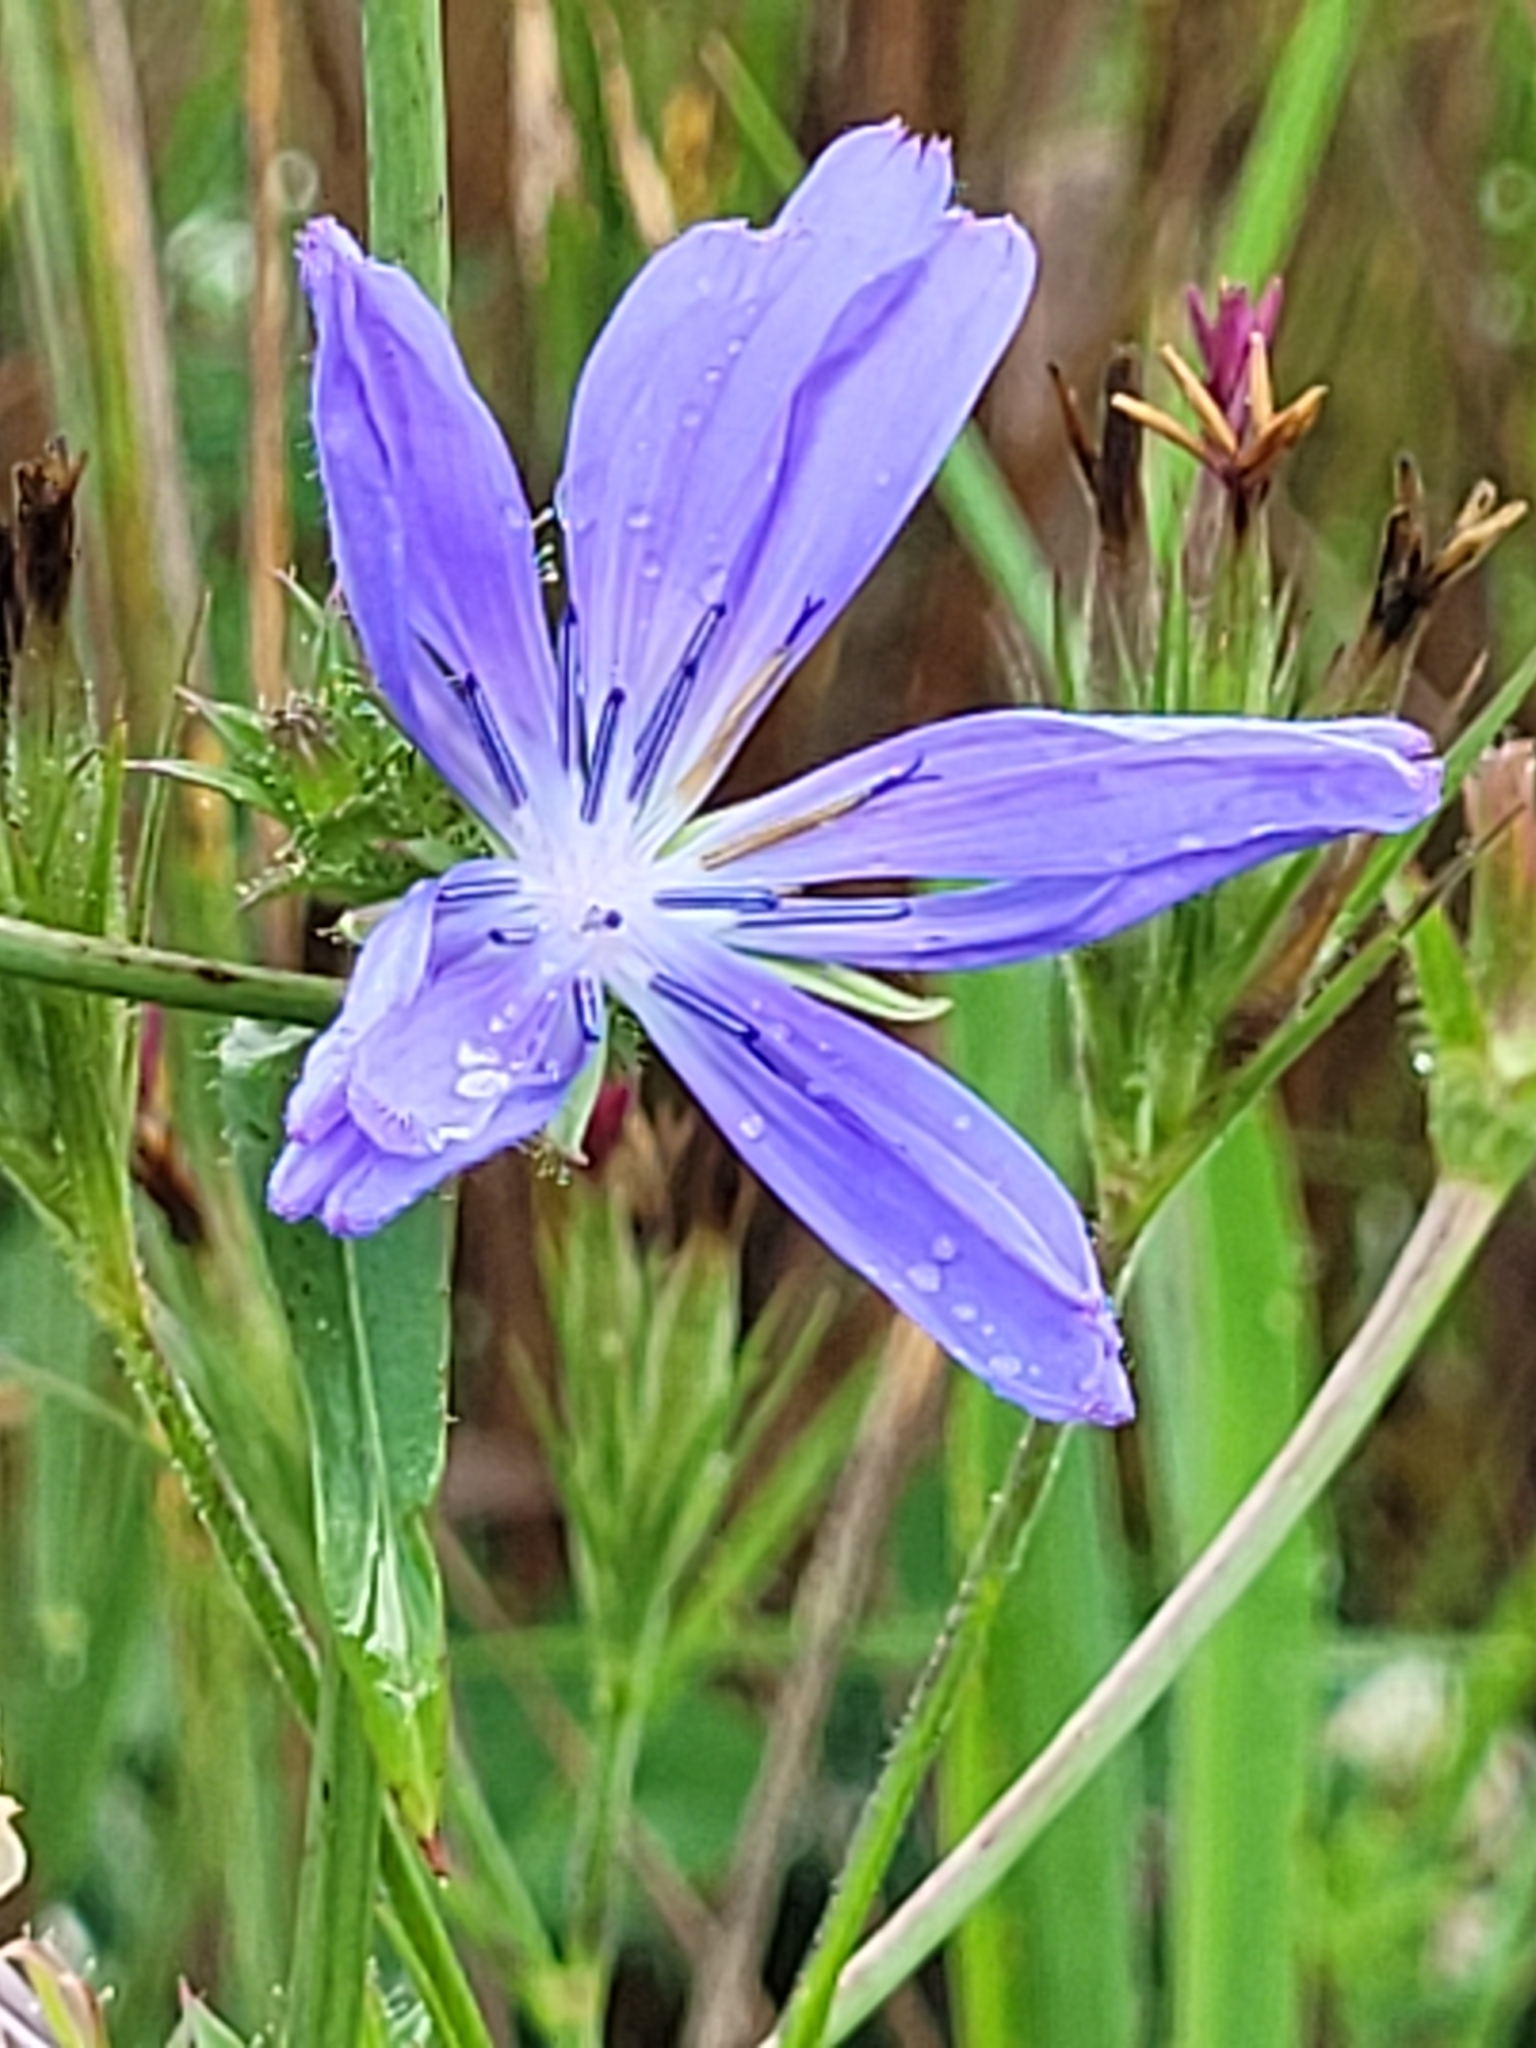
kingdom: Plantae
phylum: Tracheophyta
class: Magnoliopsida
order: Asterales
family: Asteraceae
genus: Cichorium
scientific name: Cichorium intybus
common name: Chicory
